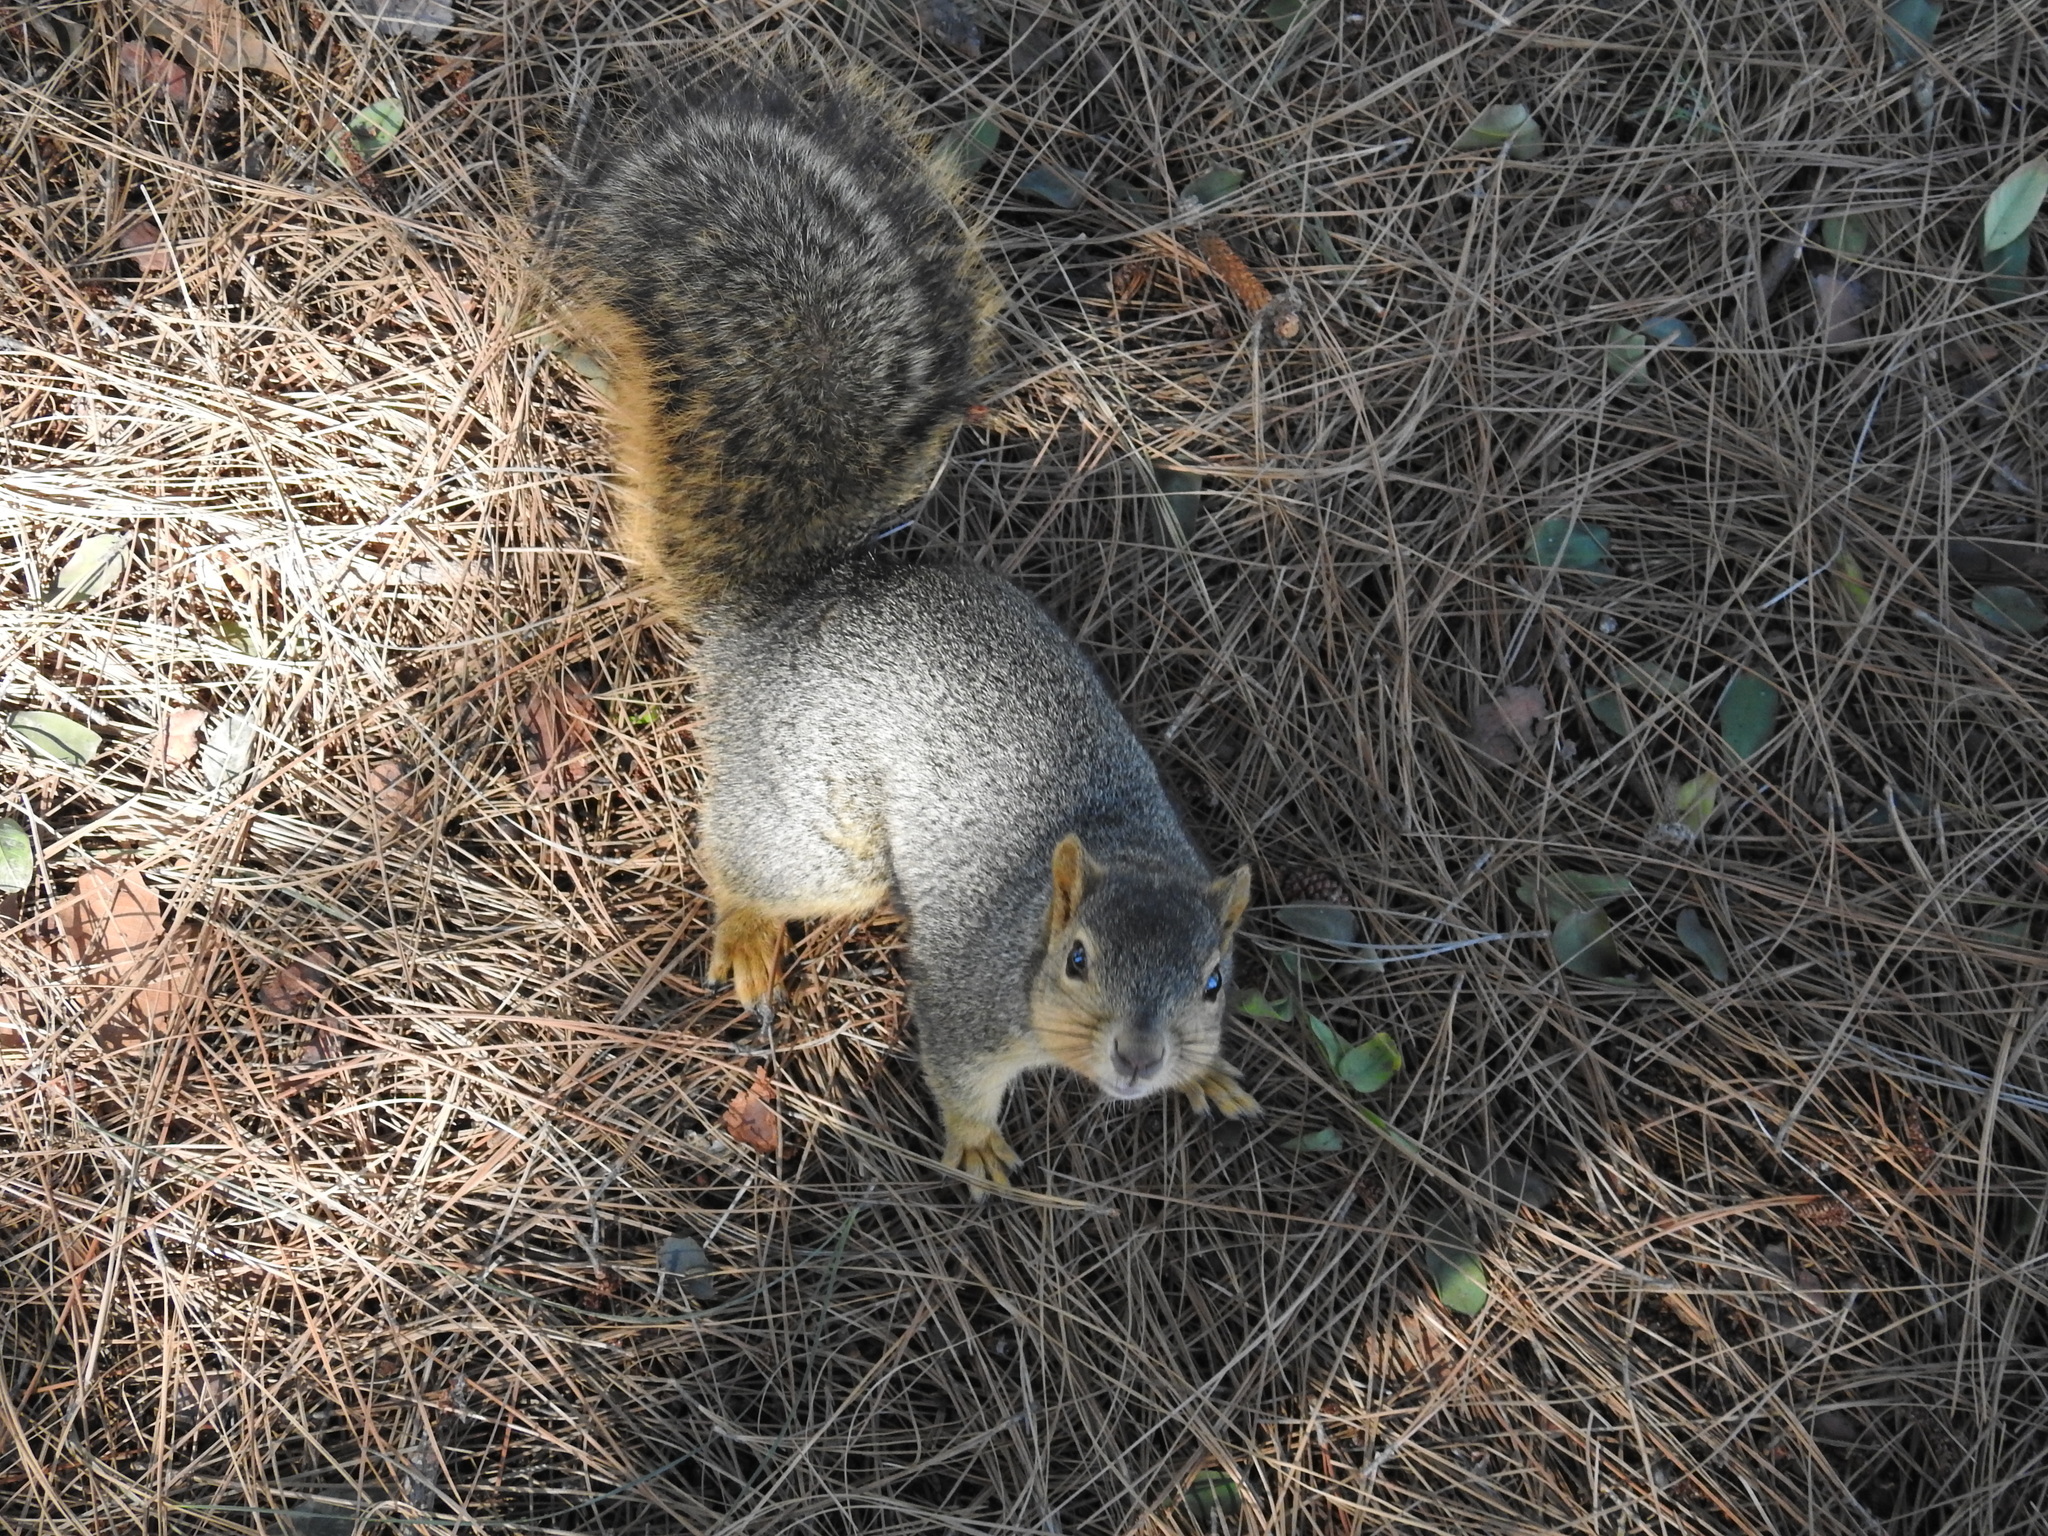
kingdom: Animalia
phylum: Chordata
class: Mammalia
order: Rodentia
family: Sciuridae
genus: Sciurus
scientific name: Sciurus niger
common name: Fox squirrel
